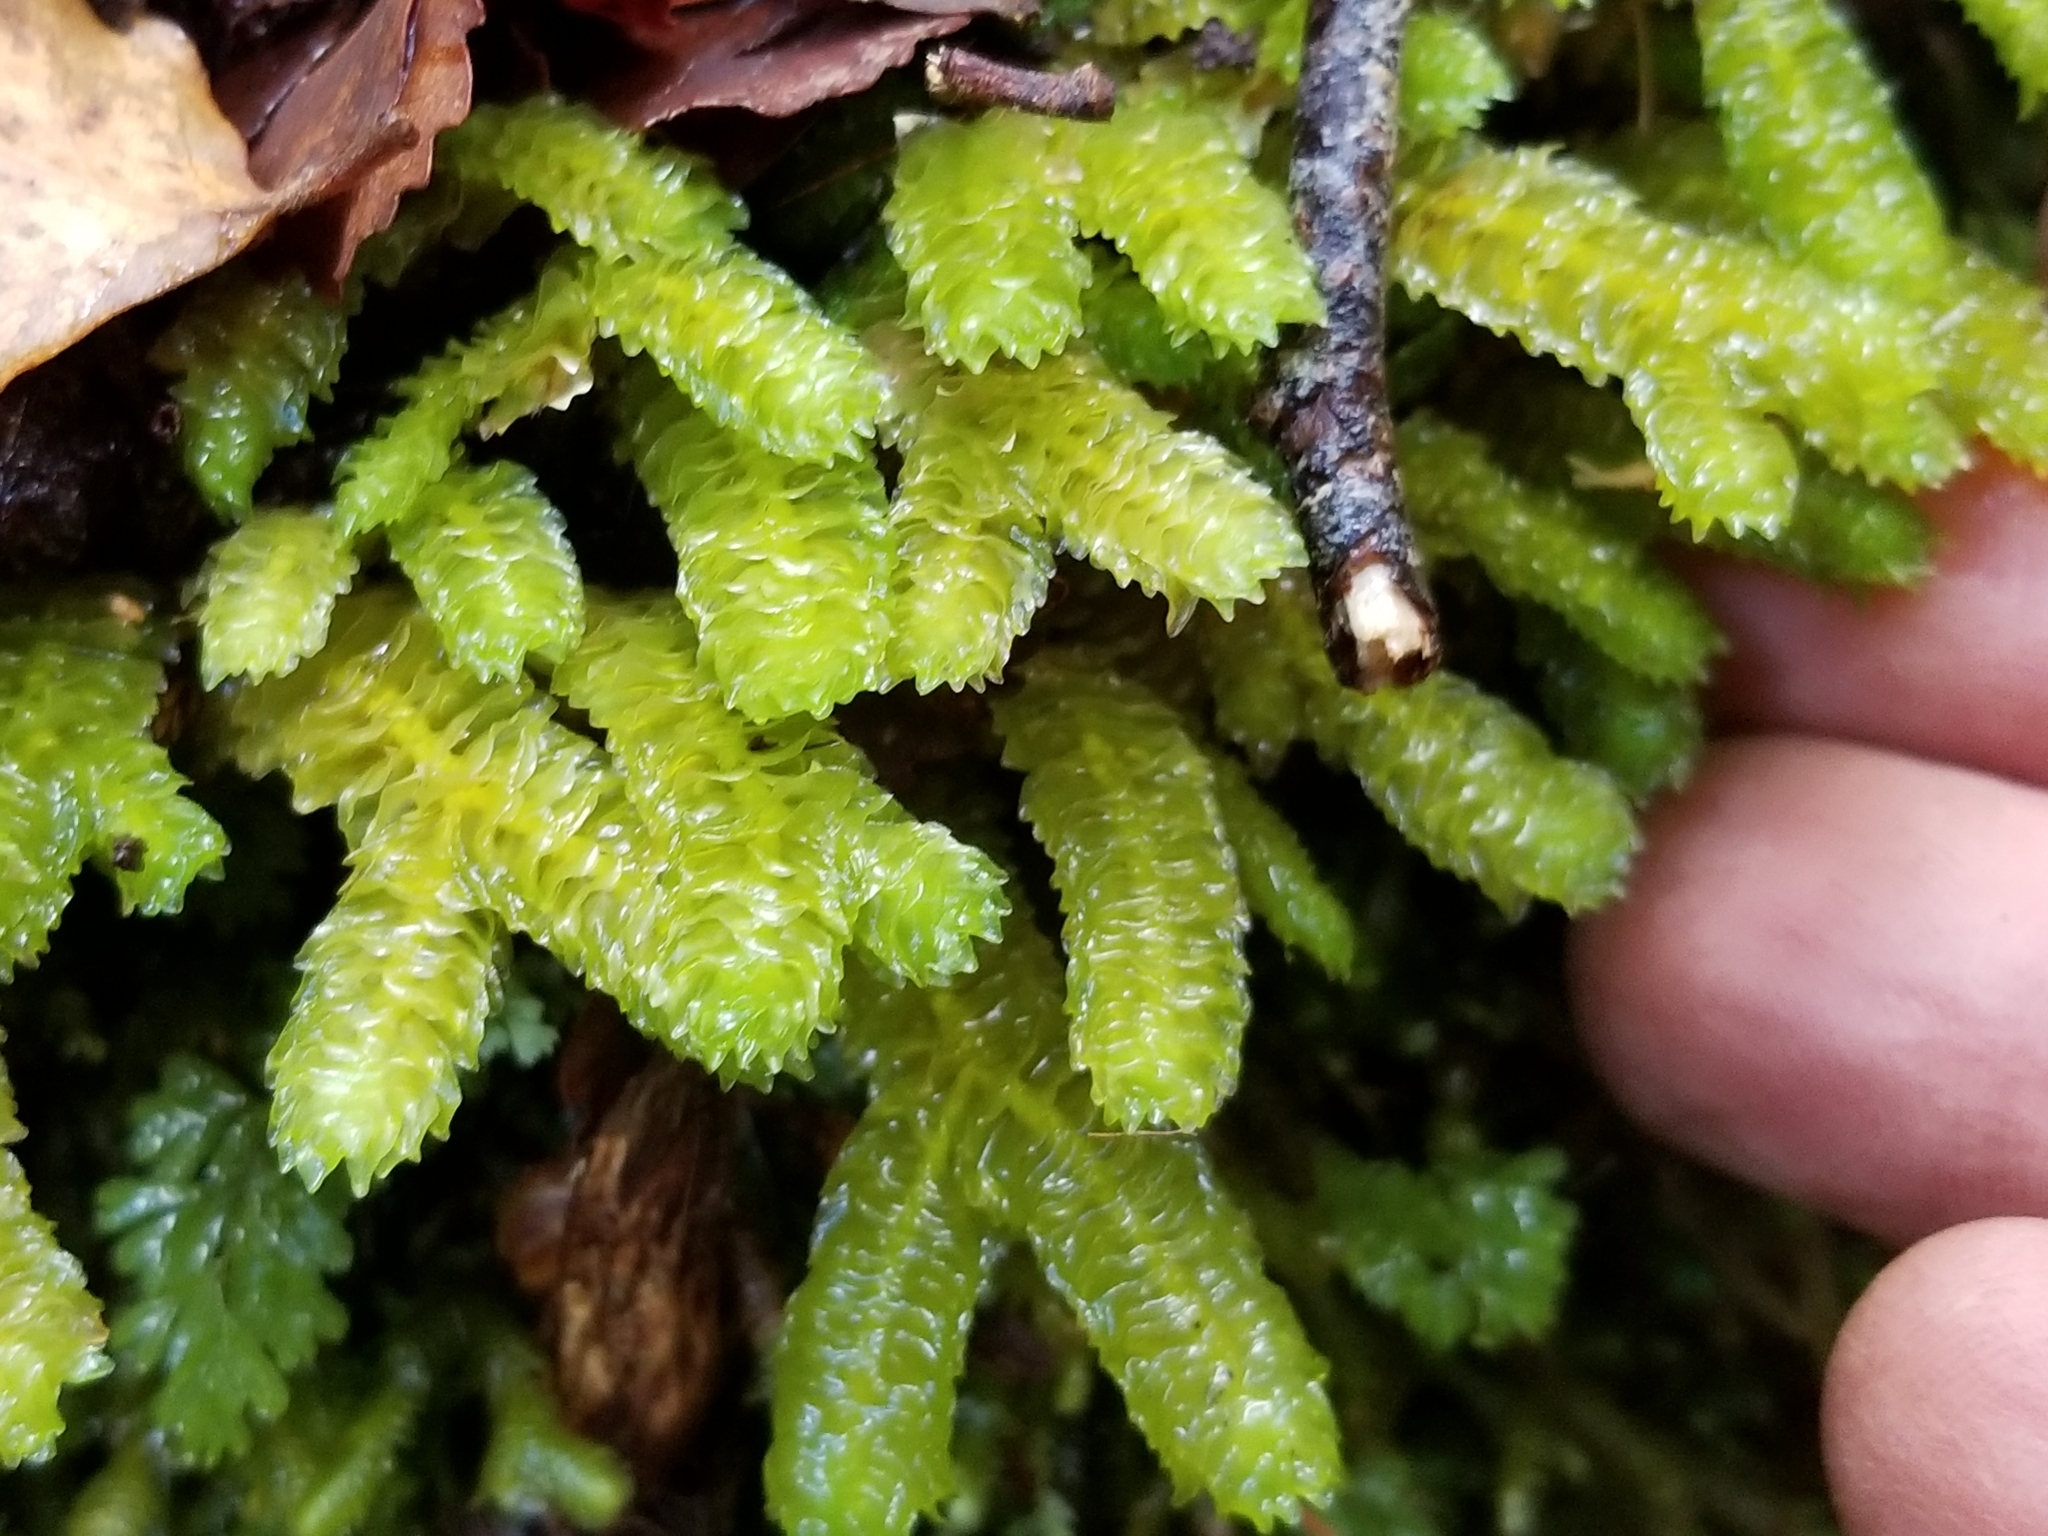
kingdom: Plantae
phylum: Marchantiophyta
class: Jungermanniopsida
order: Jungermanniales
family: Schistochilaceae
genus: Schistochila
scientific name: Schistochila appendiculata
